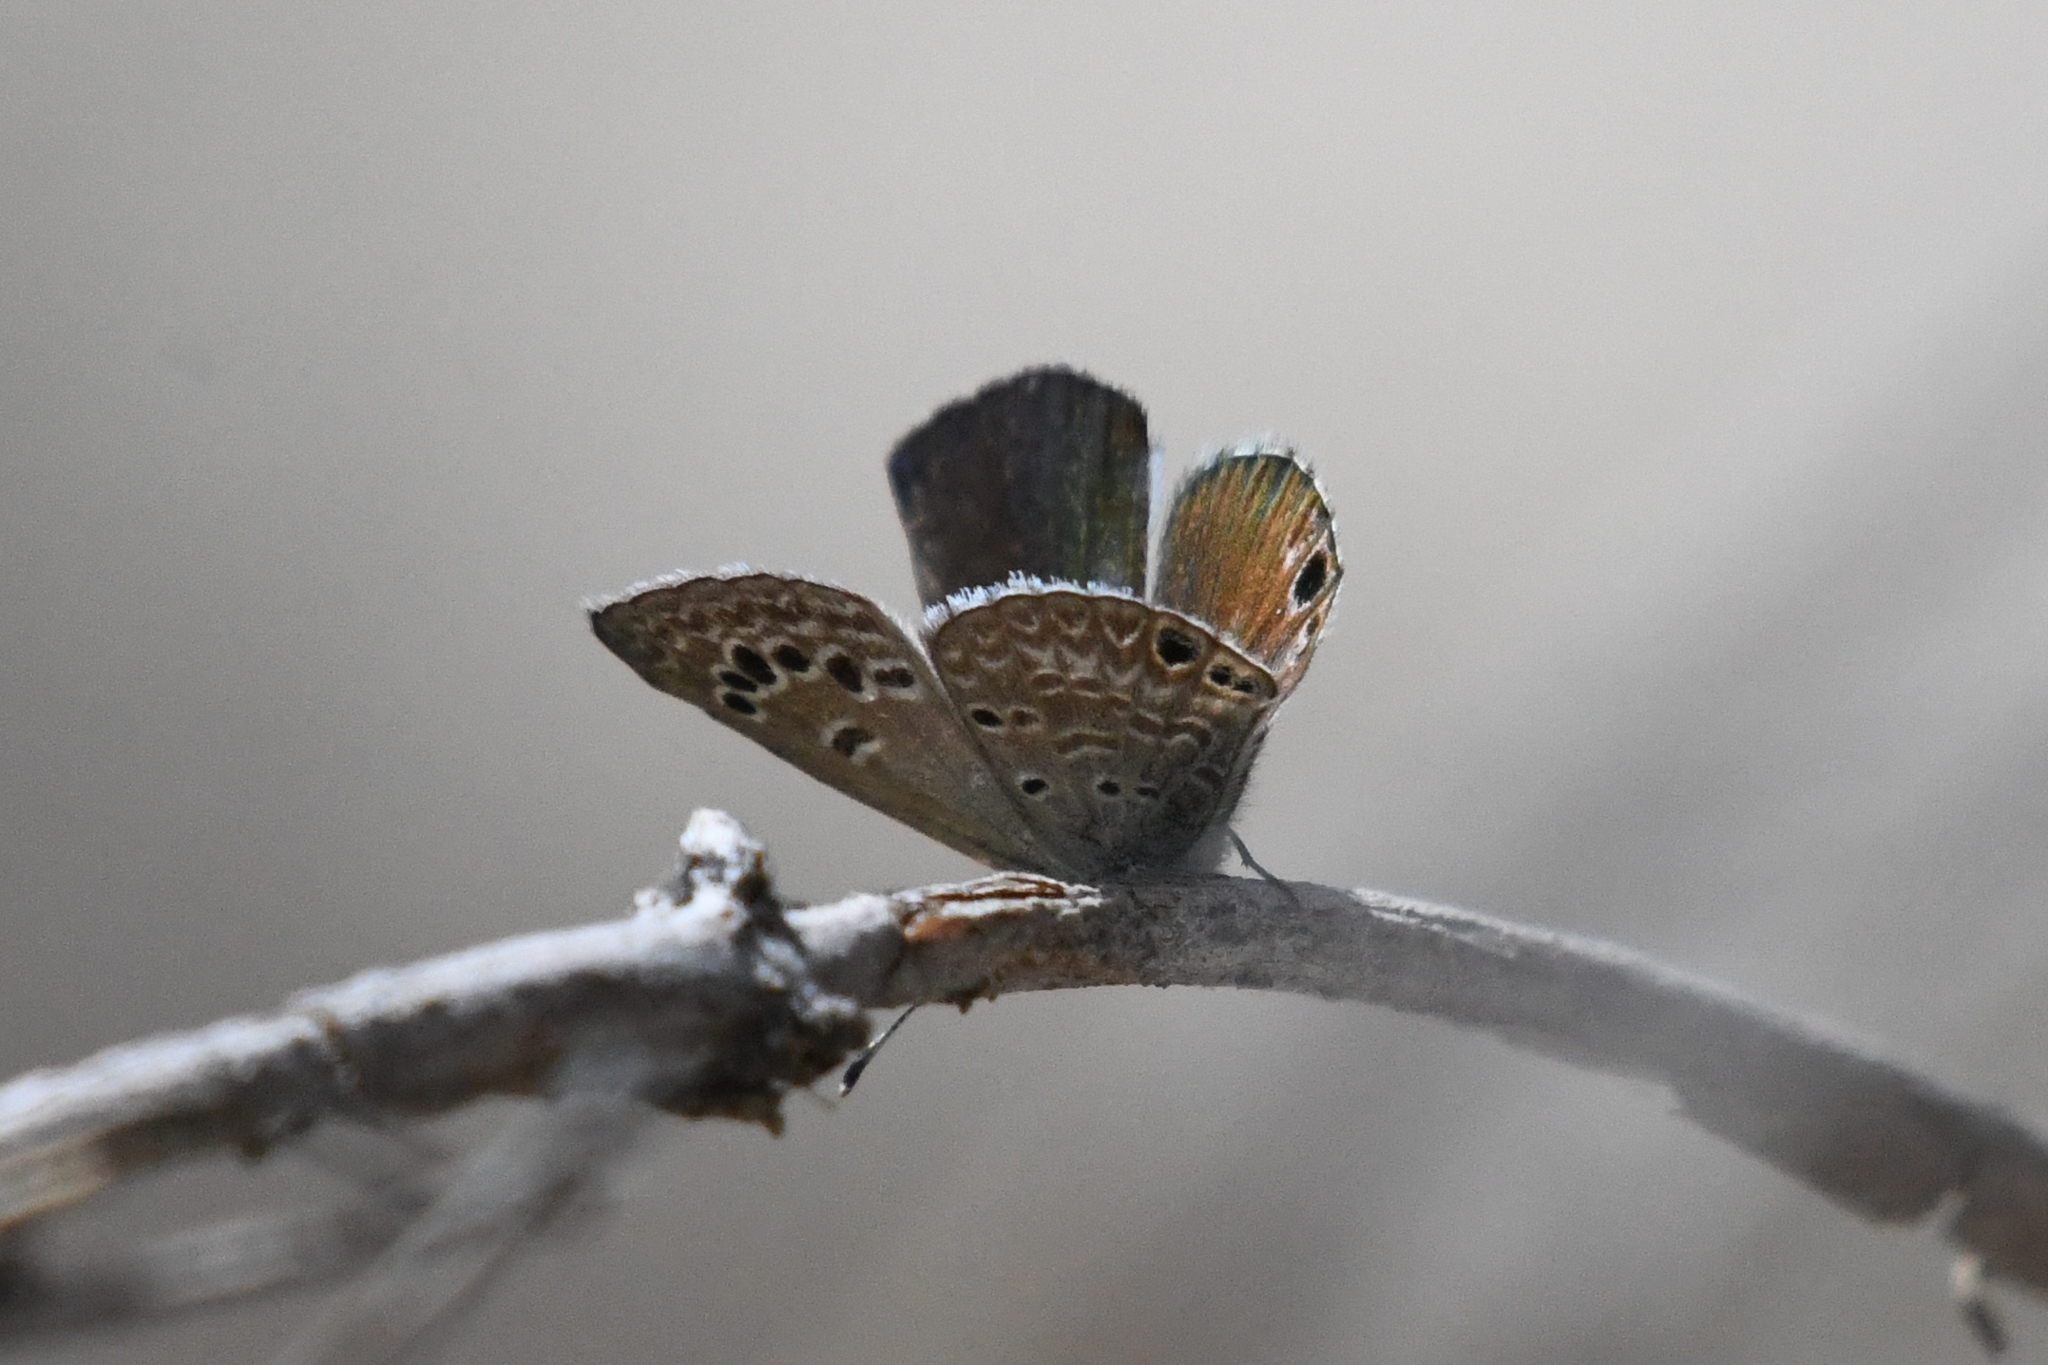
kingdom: Animalia
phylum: Arthropoda
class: Insecta
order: Lepidoptera
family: Lycaenidae
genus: Echinargus
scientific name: Echinargus isola
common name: Reakirt's blue
